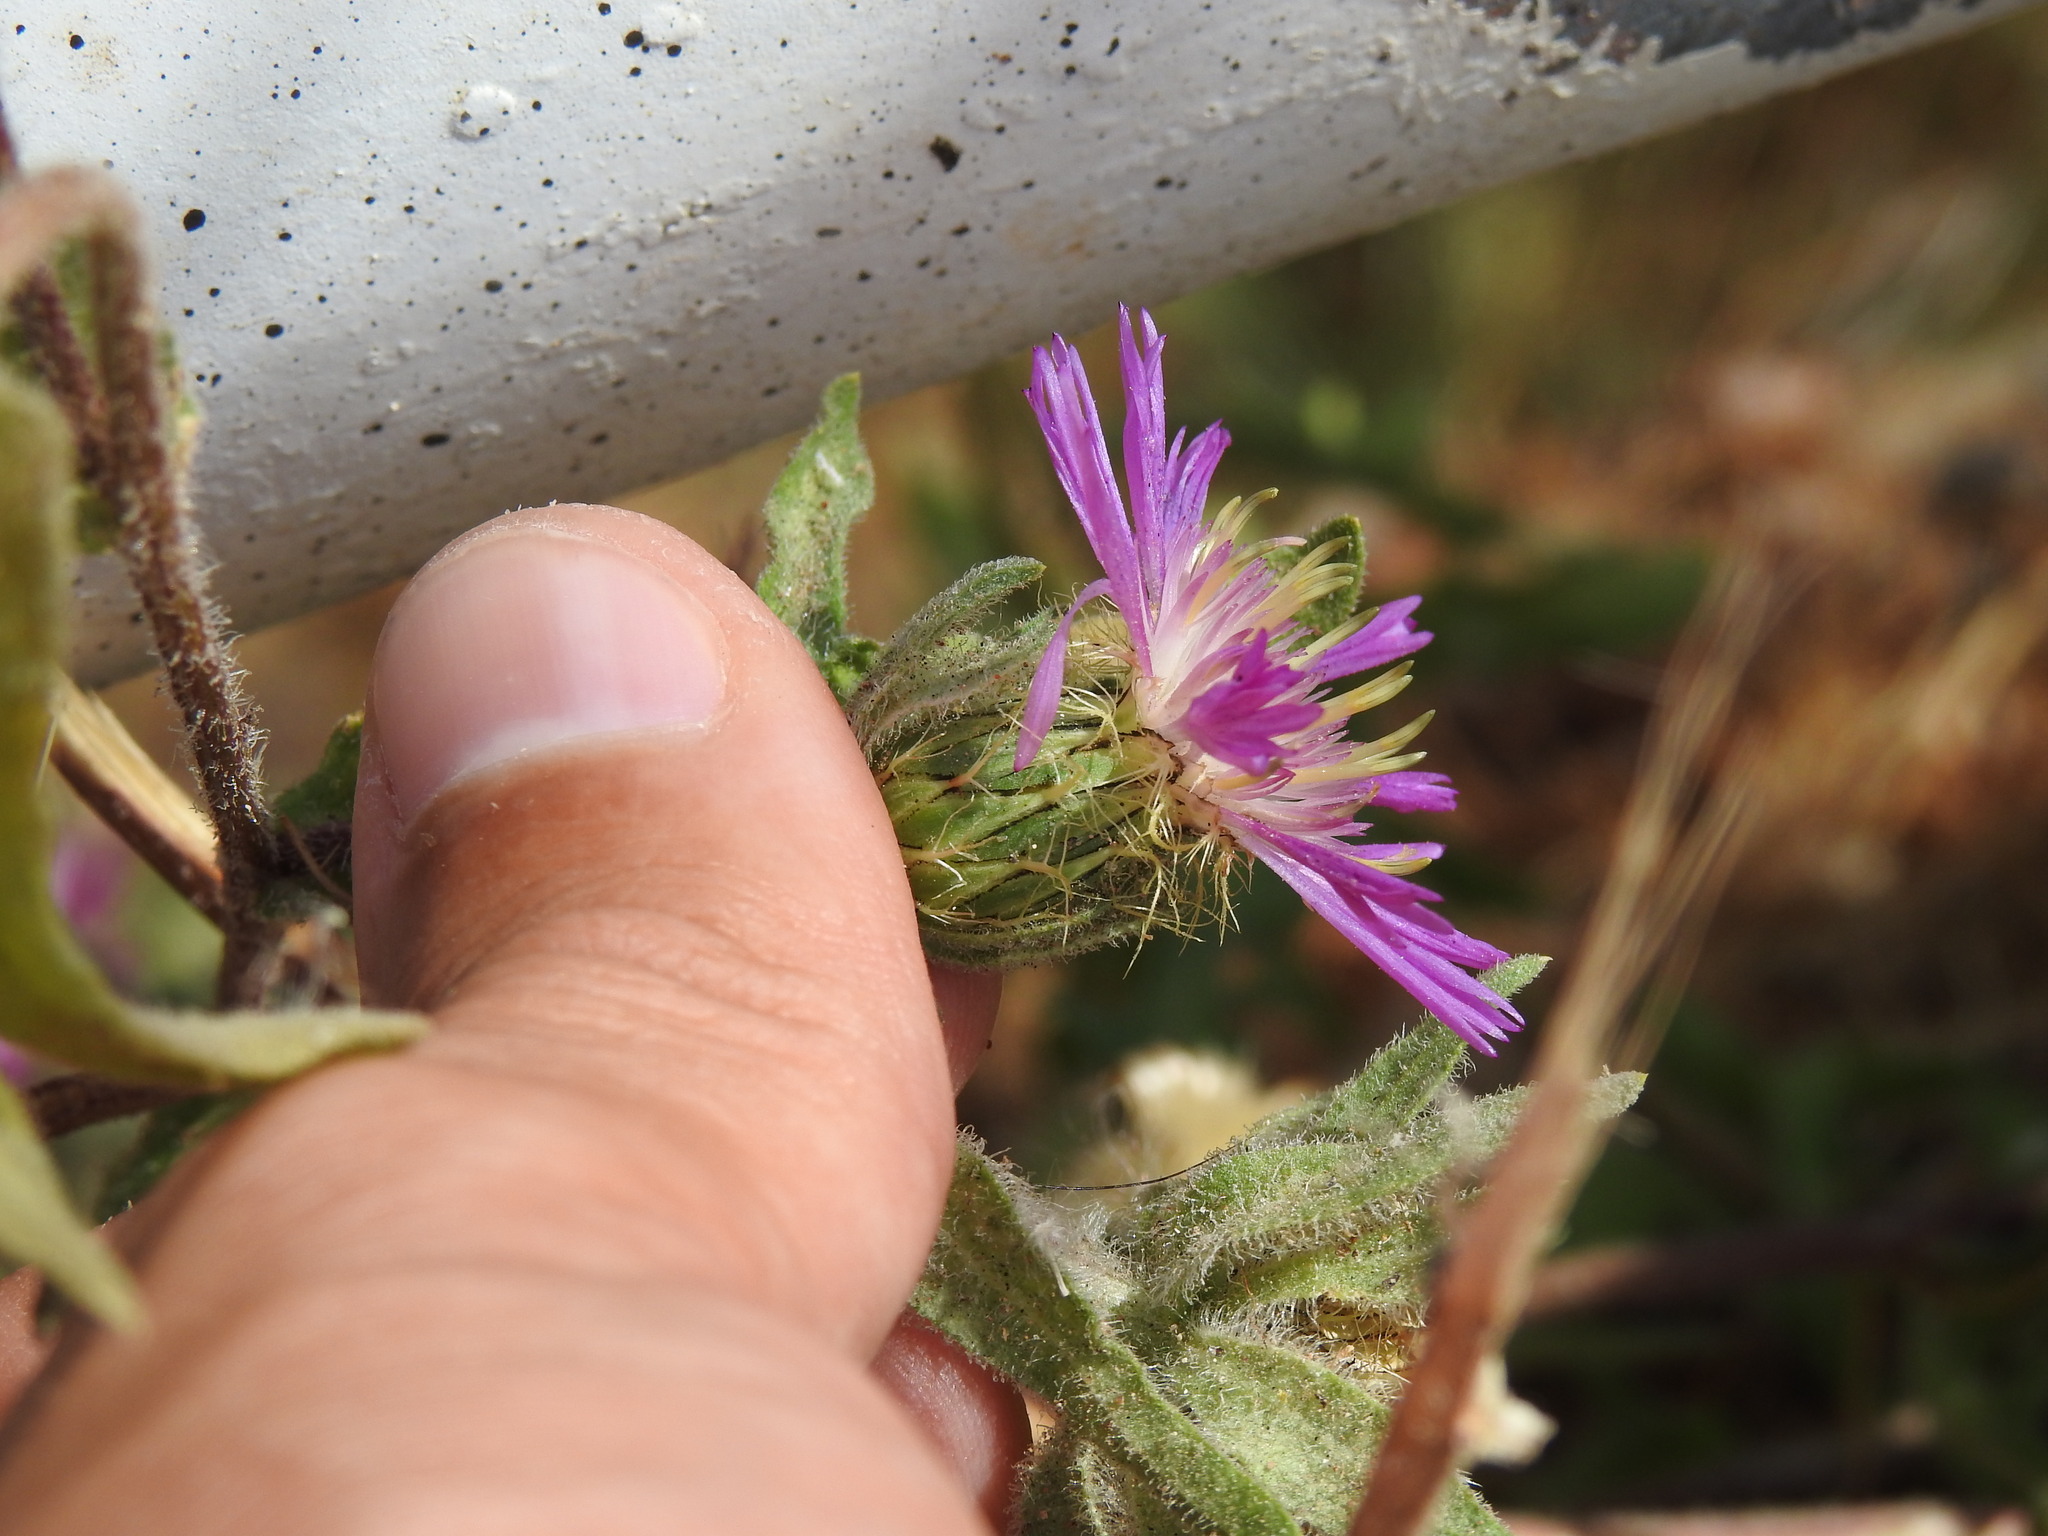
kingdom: Plantae
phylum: Tracheophyta
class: Magnoliopsida
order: Asterales
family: Asteraceae
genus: Centaurea
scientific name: Centaurea pullata
